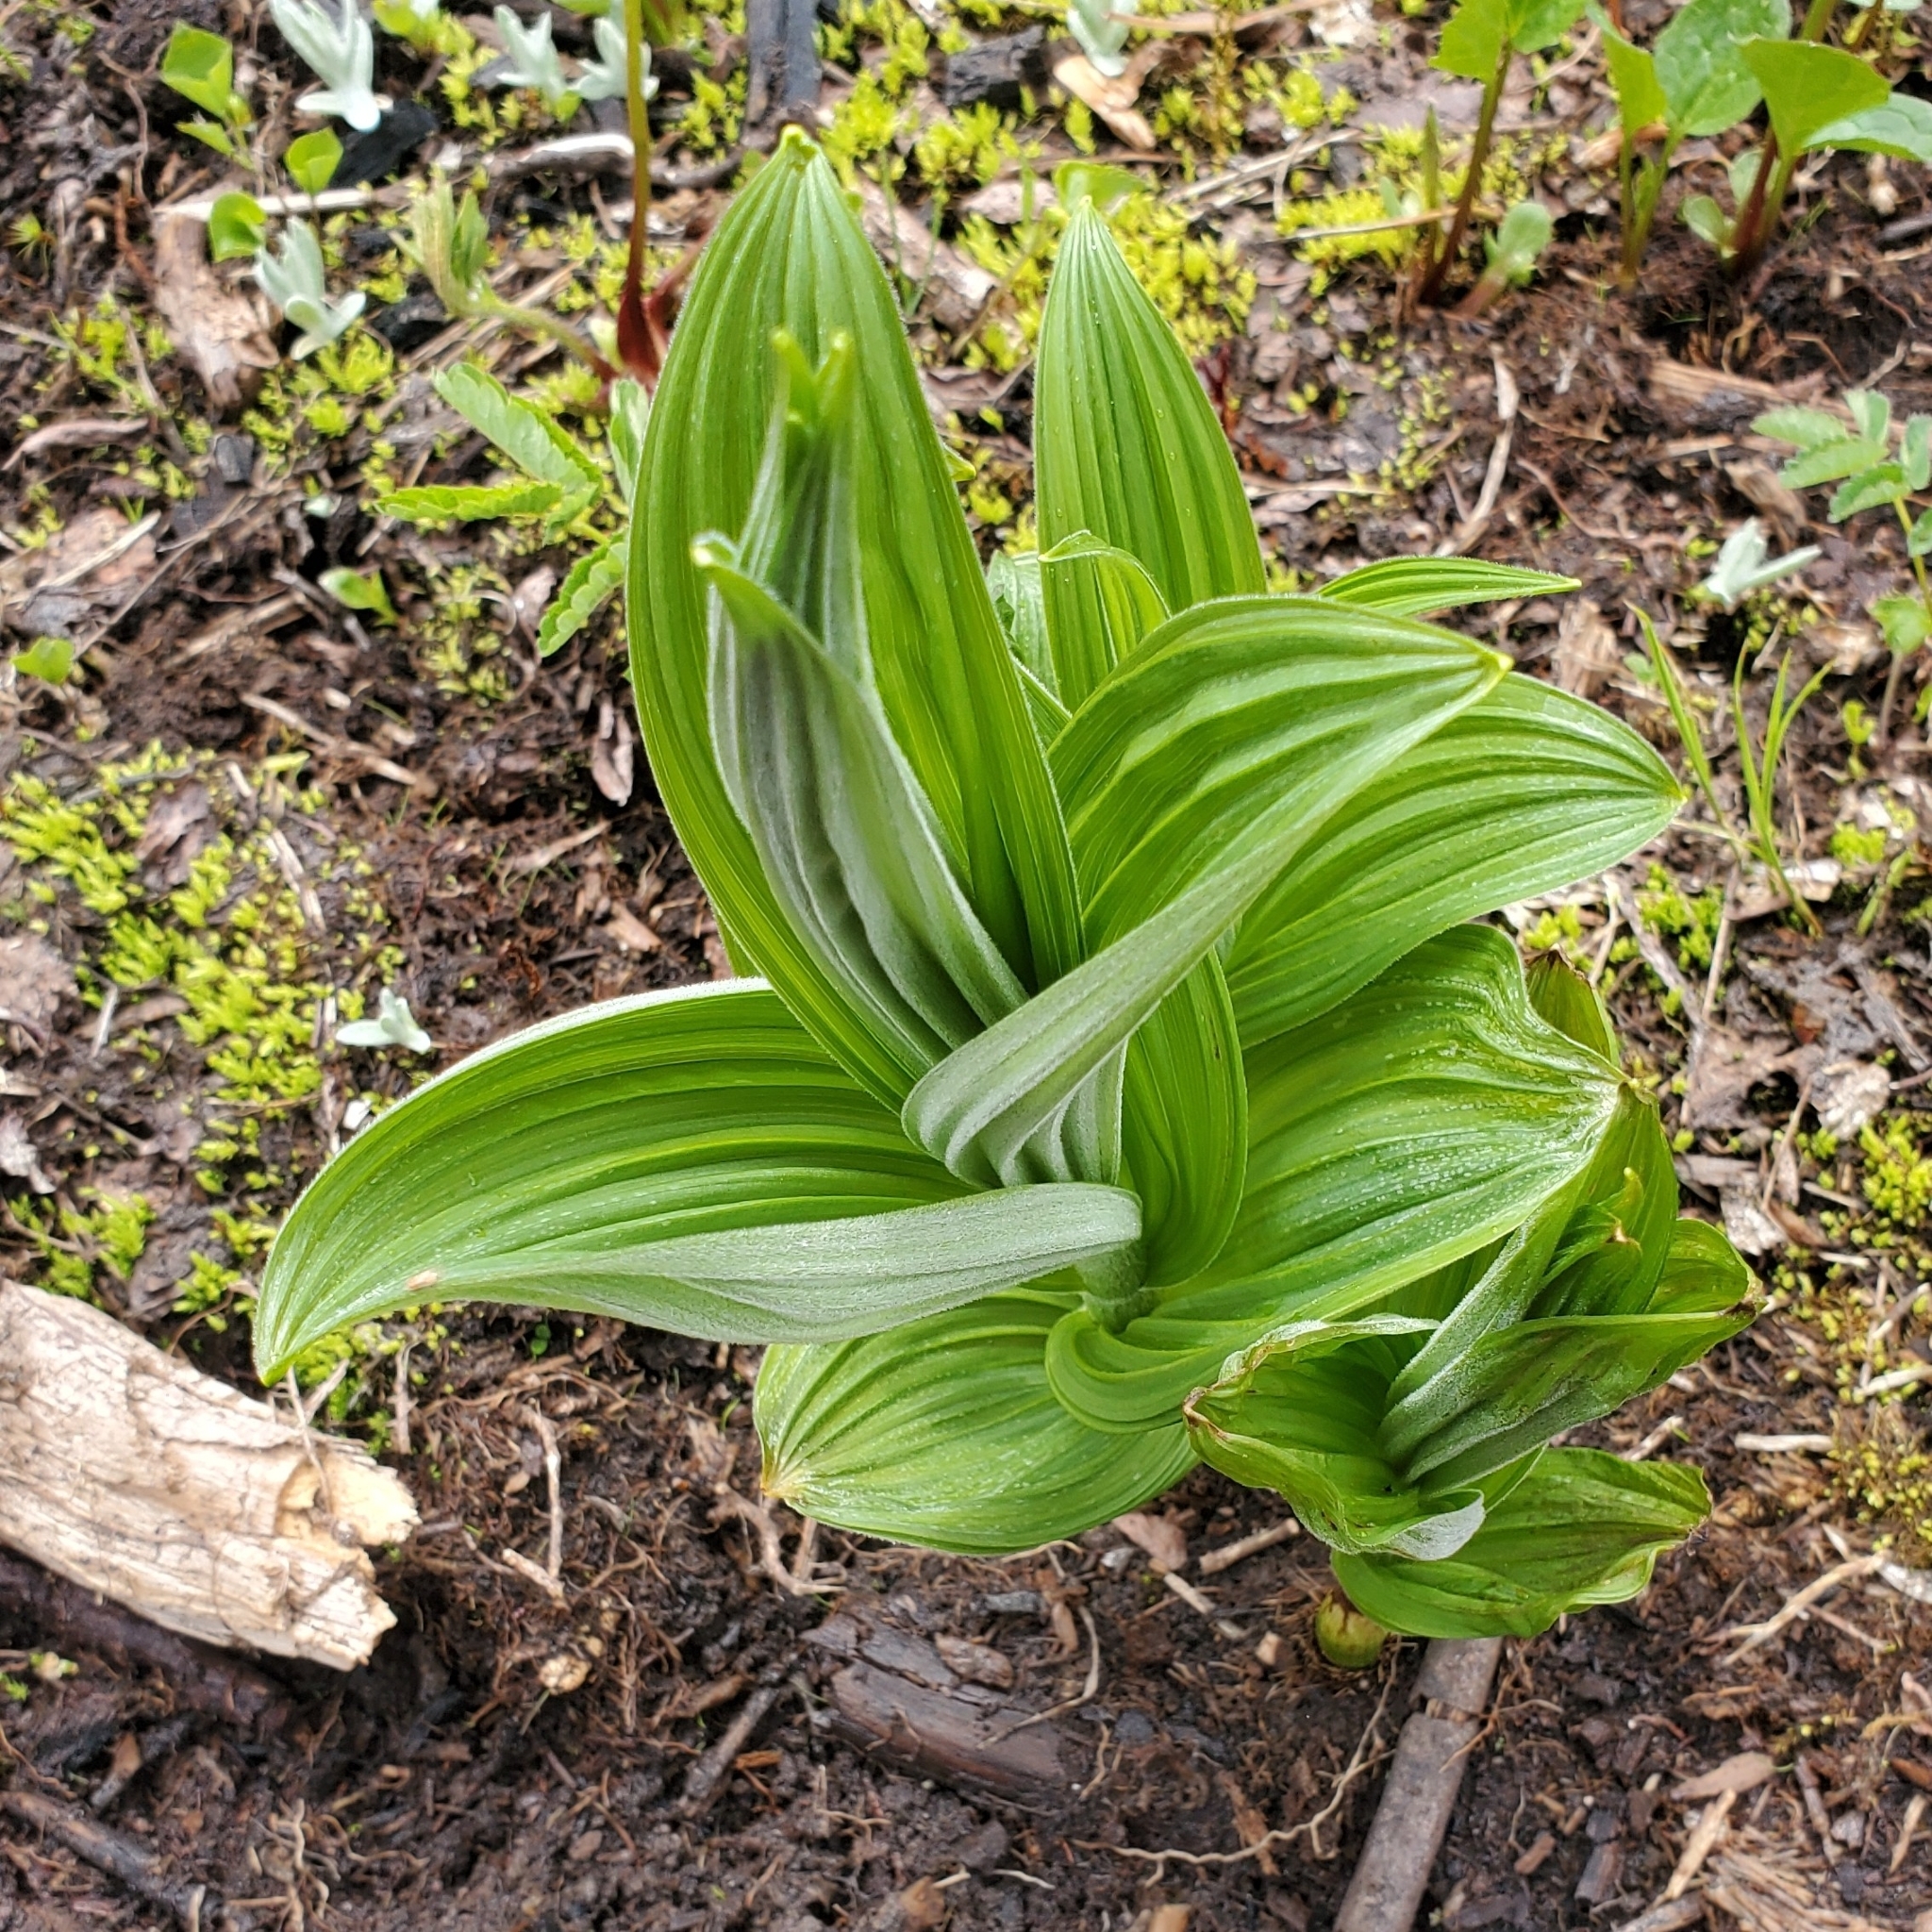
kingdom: Plantae
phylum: Tracheophyta
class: Liliopsida
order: Liliales
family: Melanthiaceae
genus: Veratrum
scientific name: Veratrum viride
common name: American false hellebore
